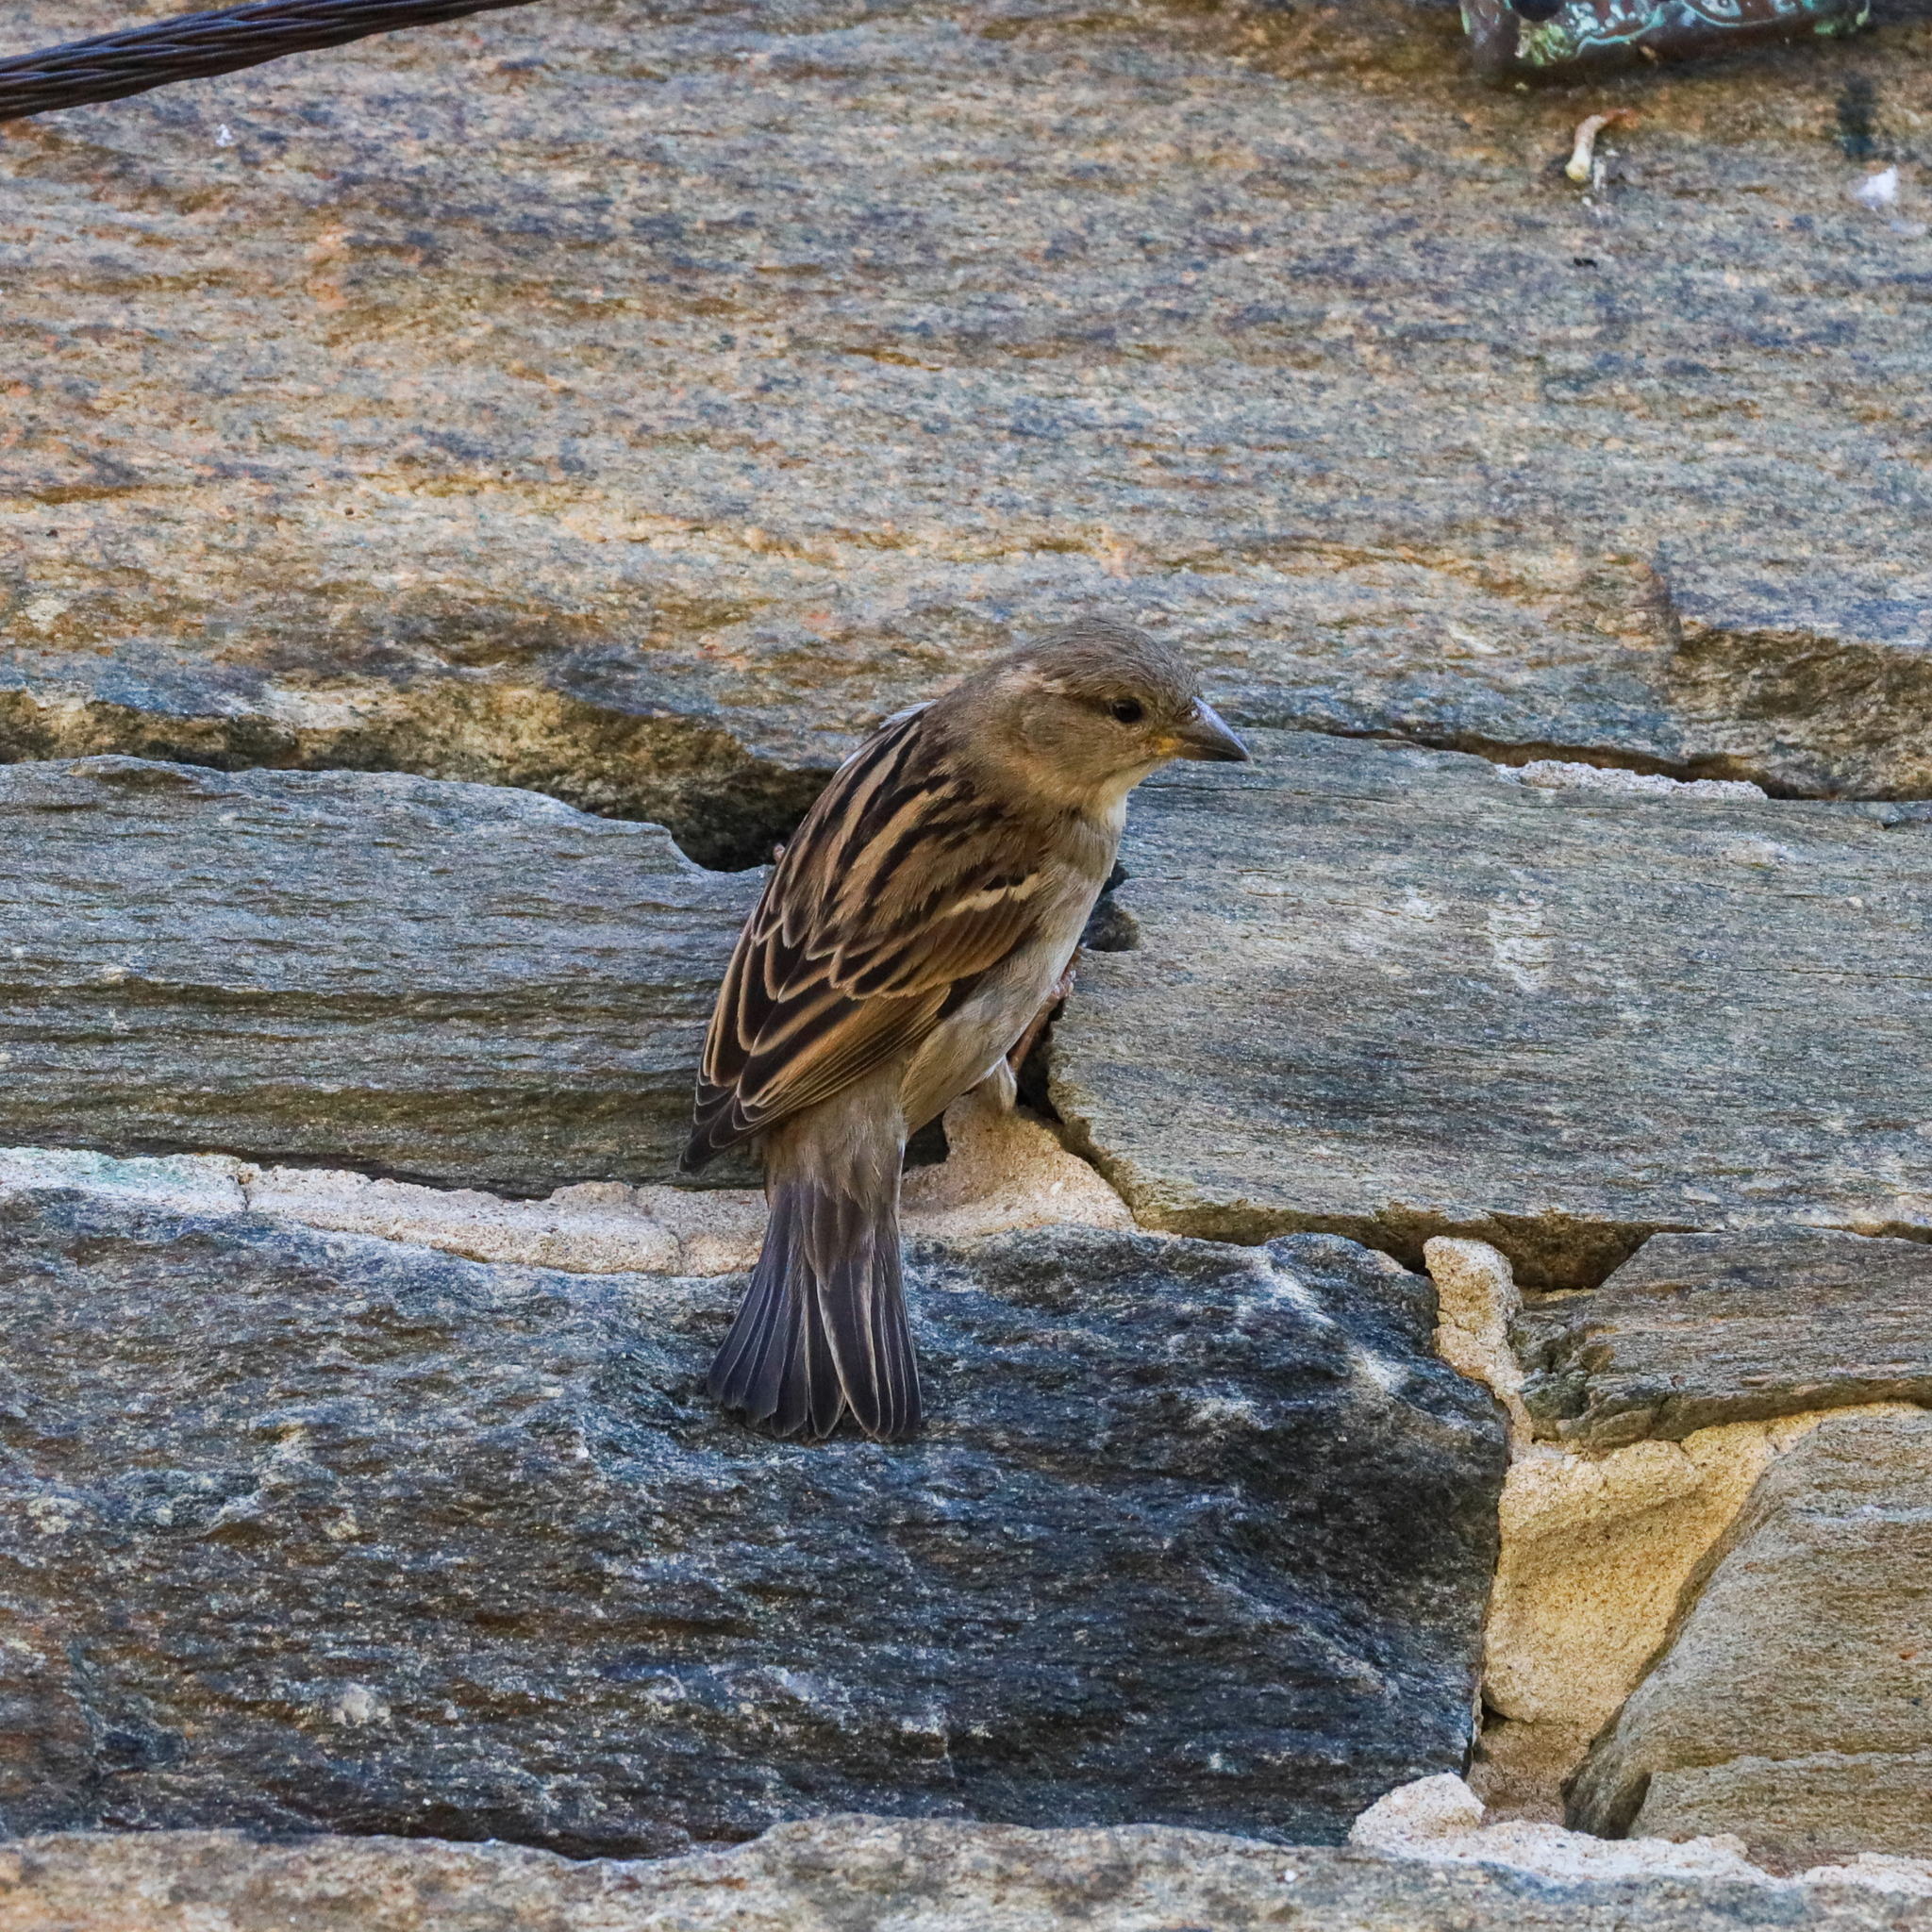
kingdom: Animalia
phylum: Chordata
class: Aves
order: Passeriformes
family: Passeridae
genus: Passer
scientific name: Passer domesticus
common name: House sparrow
